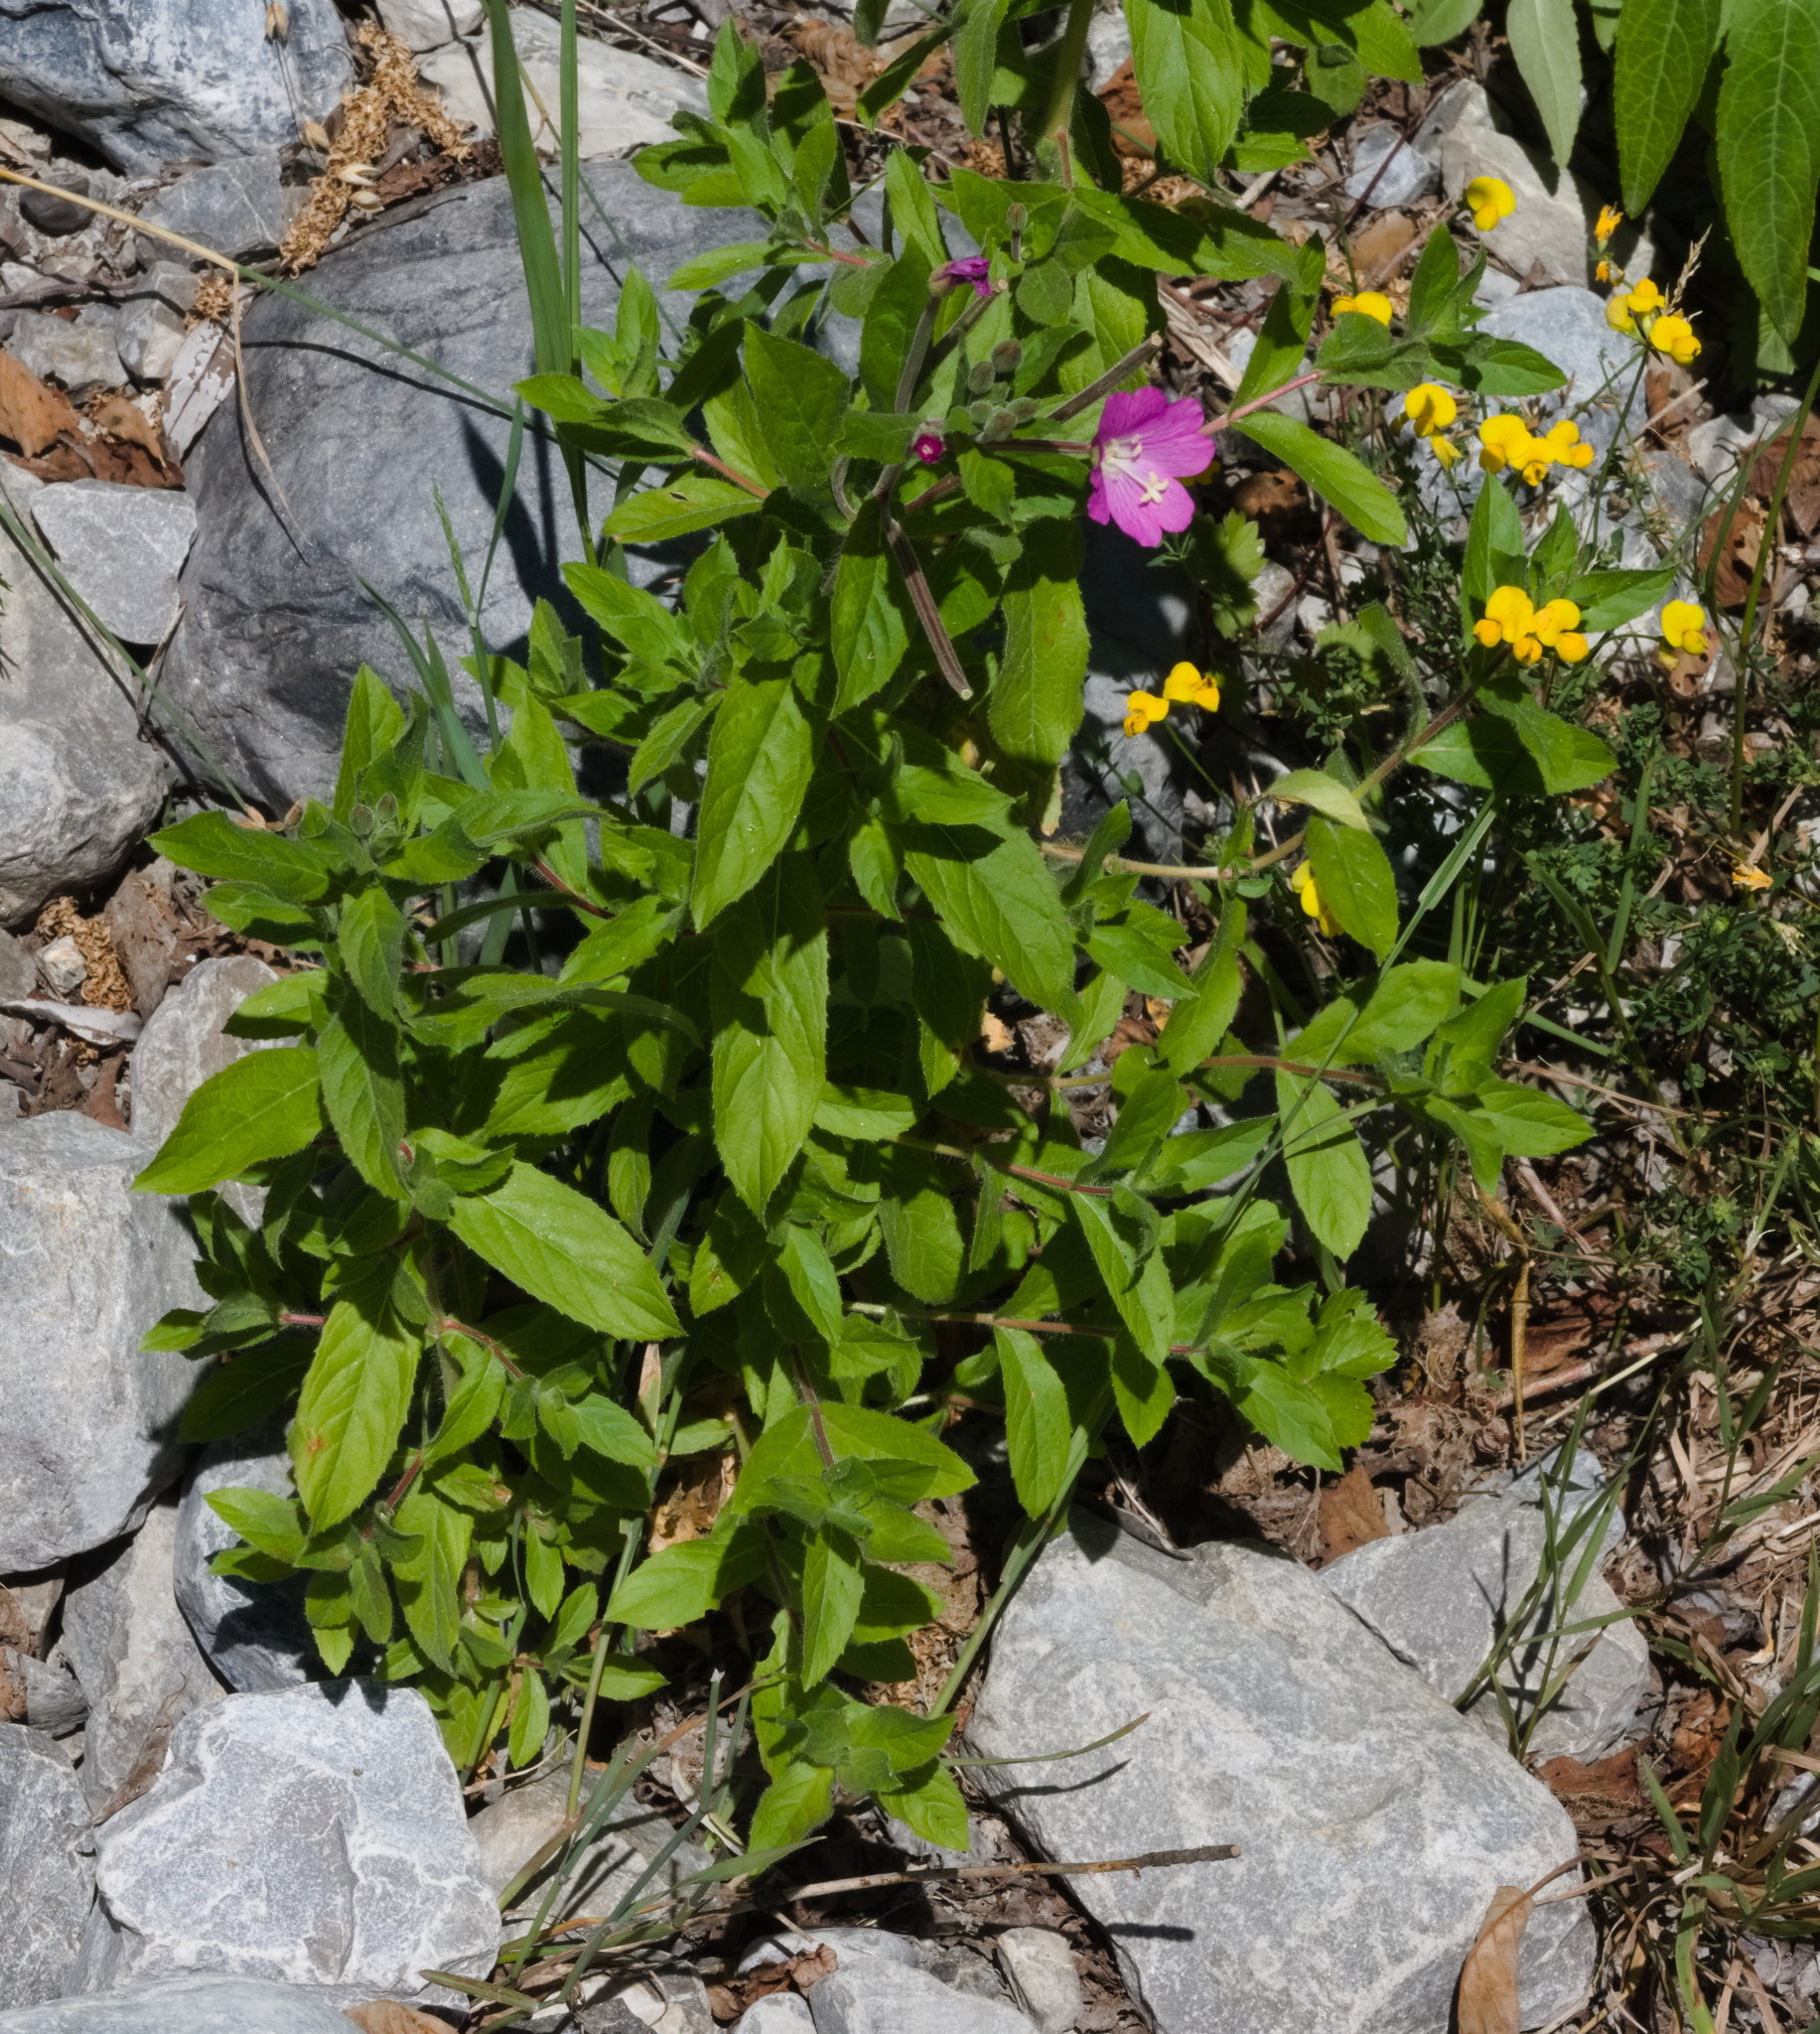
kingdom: Plantae
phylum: Tracheophyta
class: Magnoliopsida
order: Myrtales
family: Onagraceae
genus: Epilobium
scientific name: Epilobium hirsutum
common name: Great willowherb
